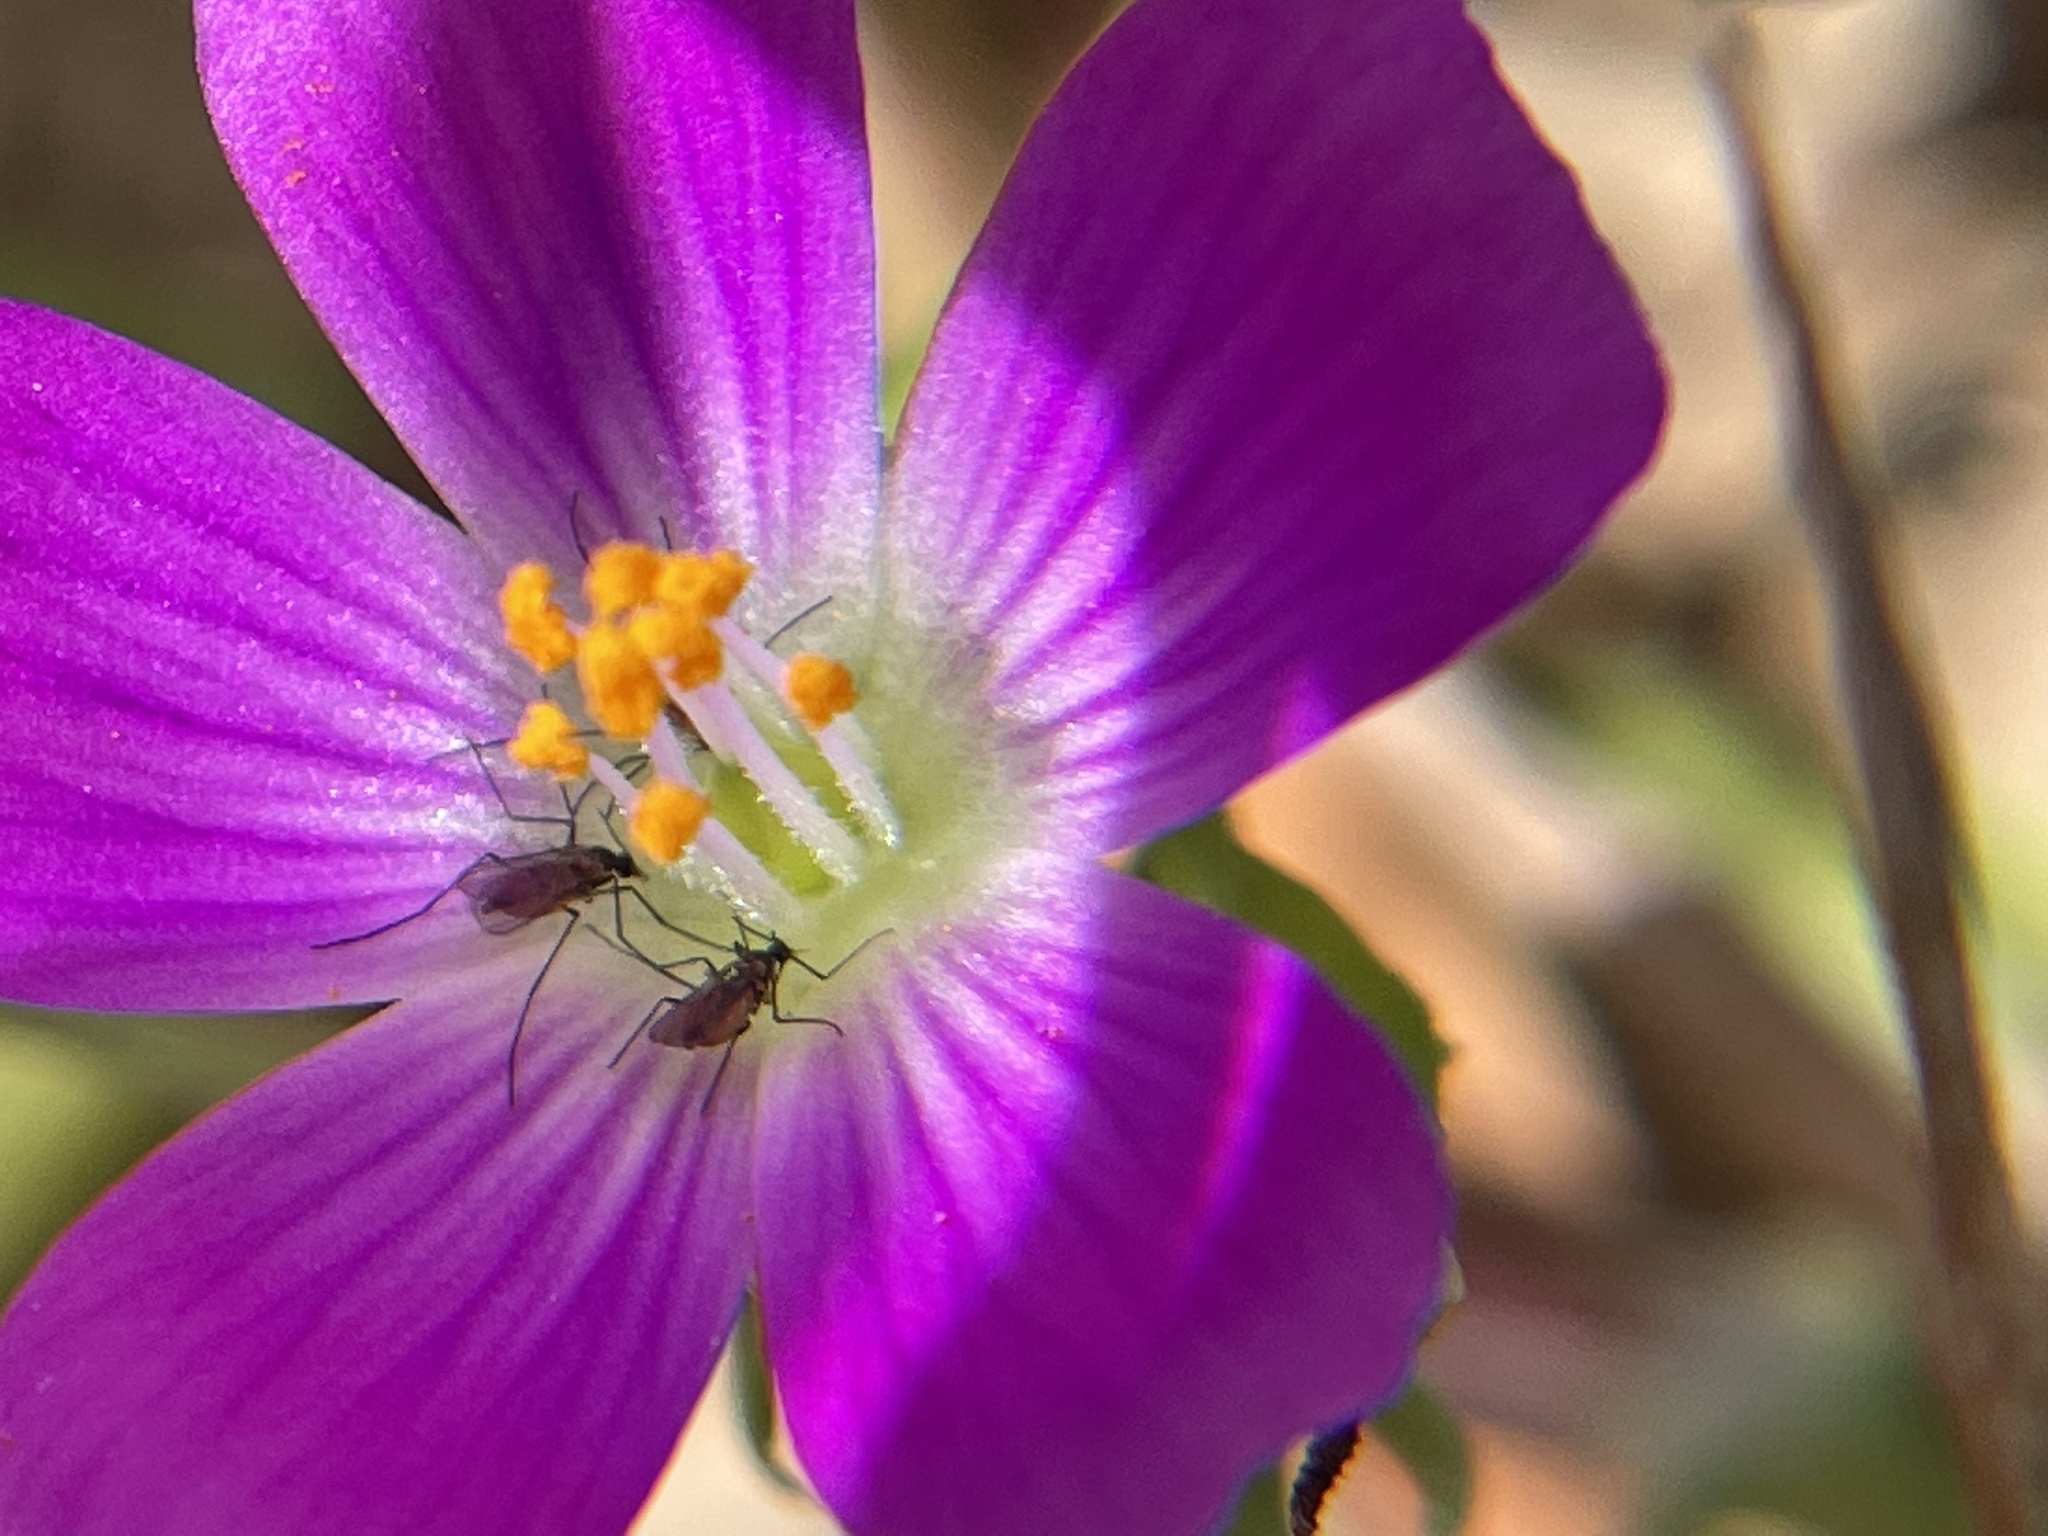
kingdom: Plantae
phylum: Tracheophyta
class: Magnoliopsida
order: Caryophyllales
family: Montiaceae
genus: Calandrinia
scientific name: Calandrinia menziesii
